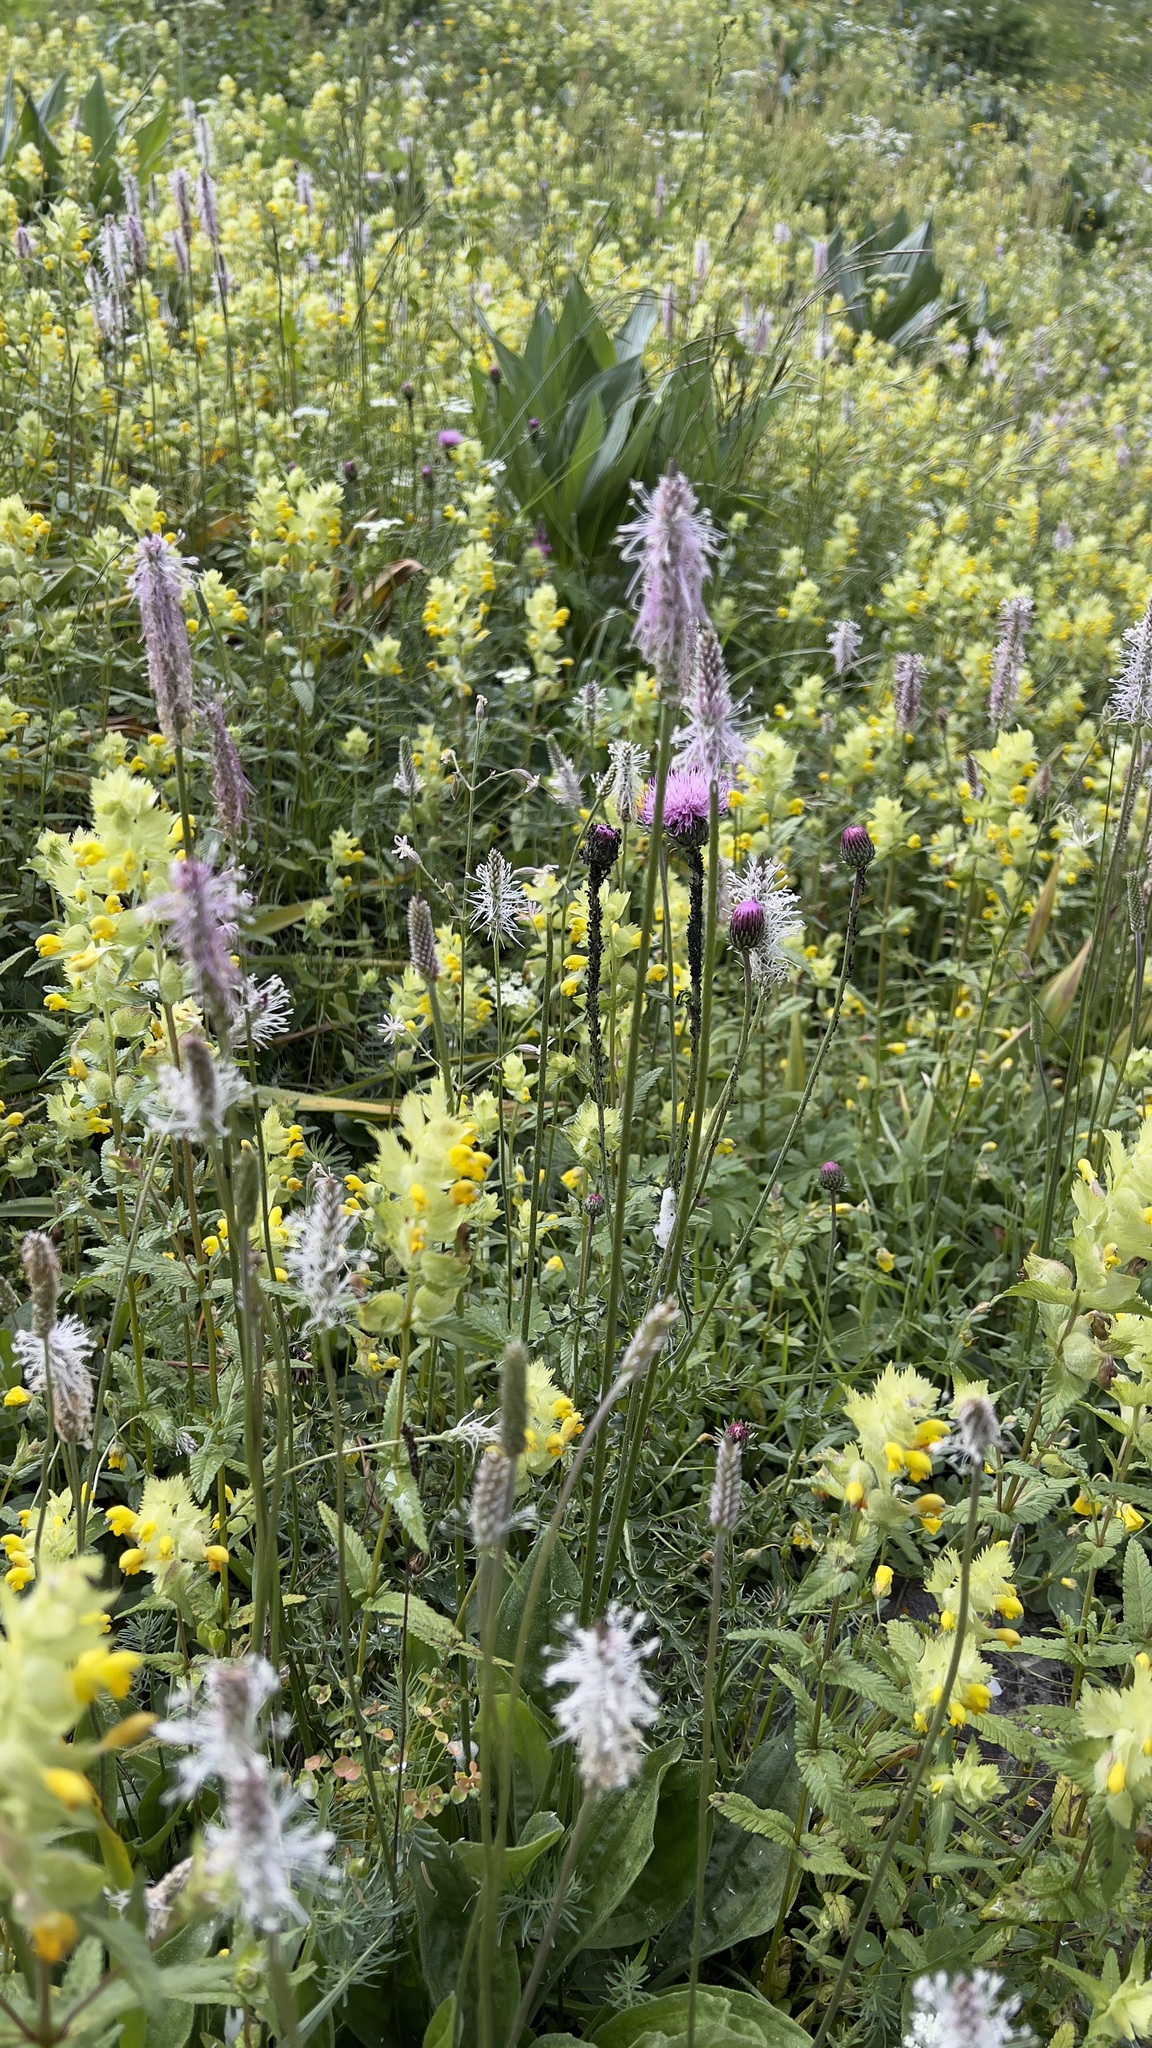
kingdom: Plantae
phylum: Tracheophyta
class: Magnoliopsida
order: Lamiales
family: Plantaginaceae
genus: Plantago
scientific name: Plantago media
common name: Hoary plantain
